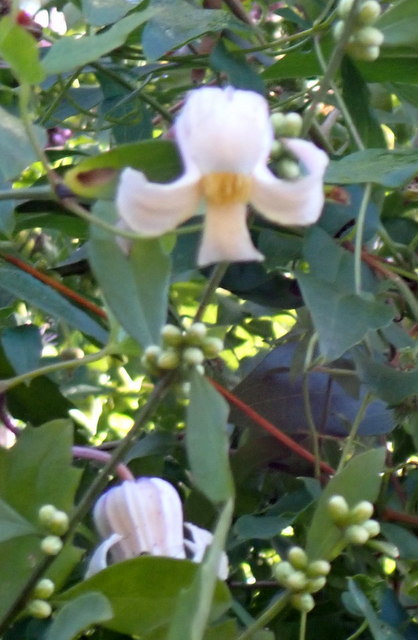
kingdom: Plantae
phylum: Tracheophyta
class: Magnoliopsida
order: Ranunculales
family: Ranunculaceae
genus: Clematis
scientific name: Clematis crispa
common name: Curly clematis
